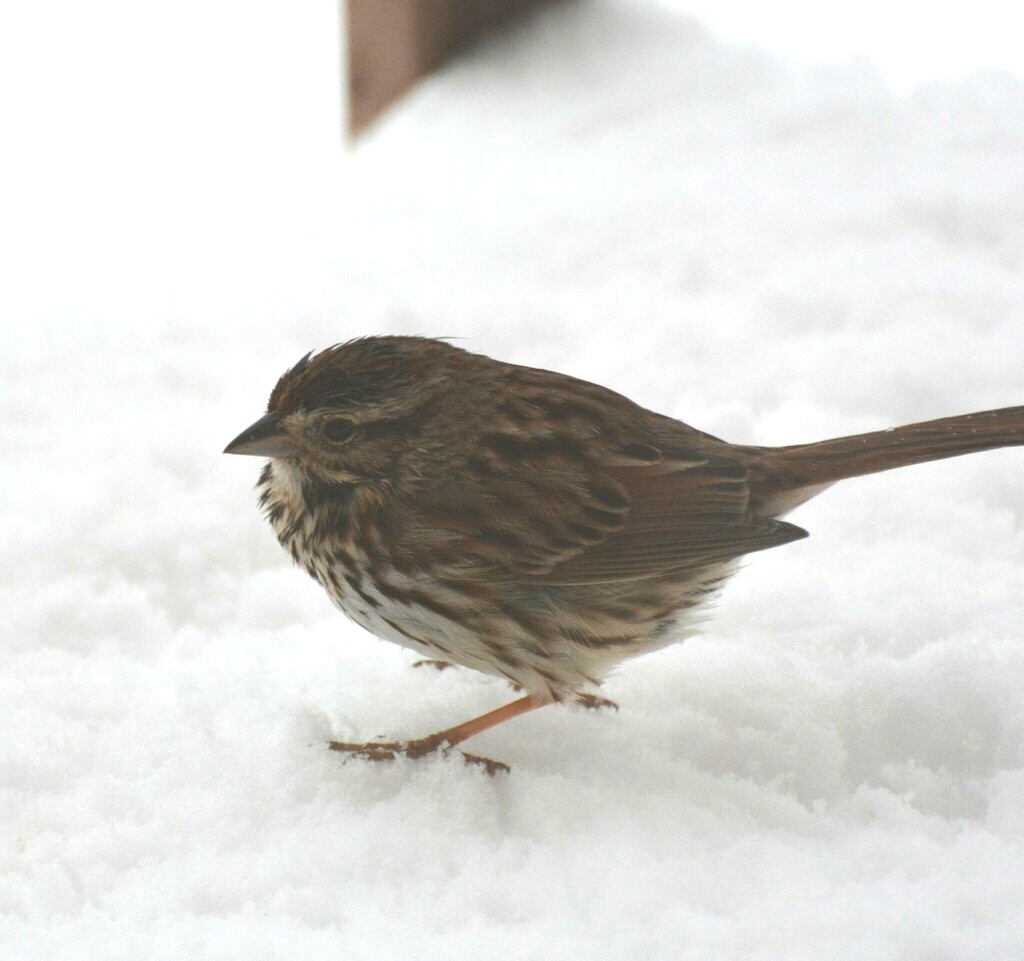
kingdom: Animalia
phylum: Chordata
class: Aves
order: Passeriformes
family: Passerellidae
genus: Melospiza
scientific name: Melospiza melodia
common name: Song sparrow
